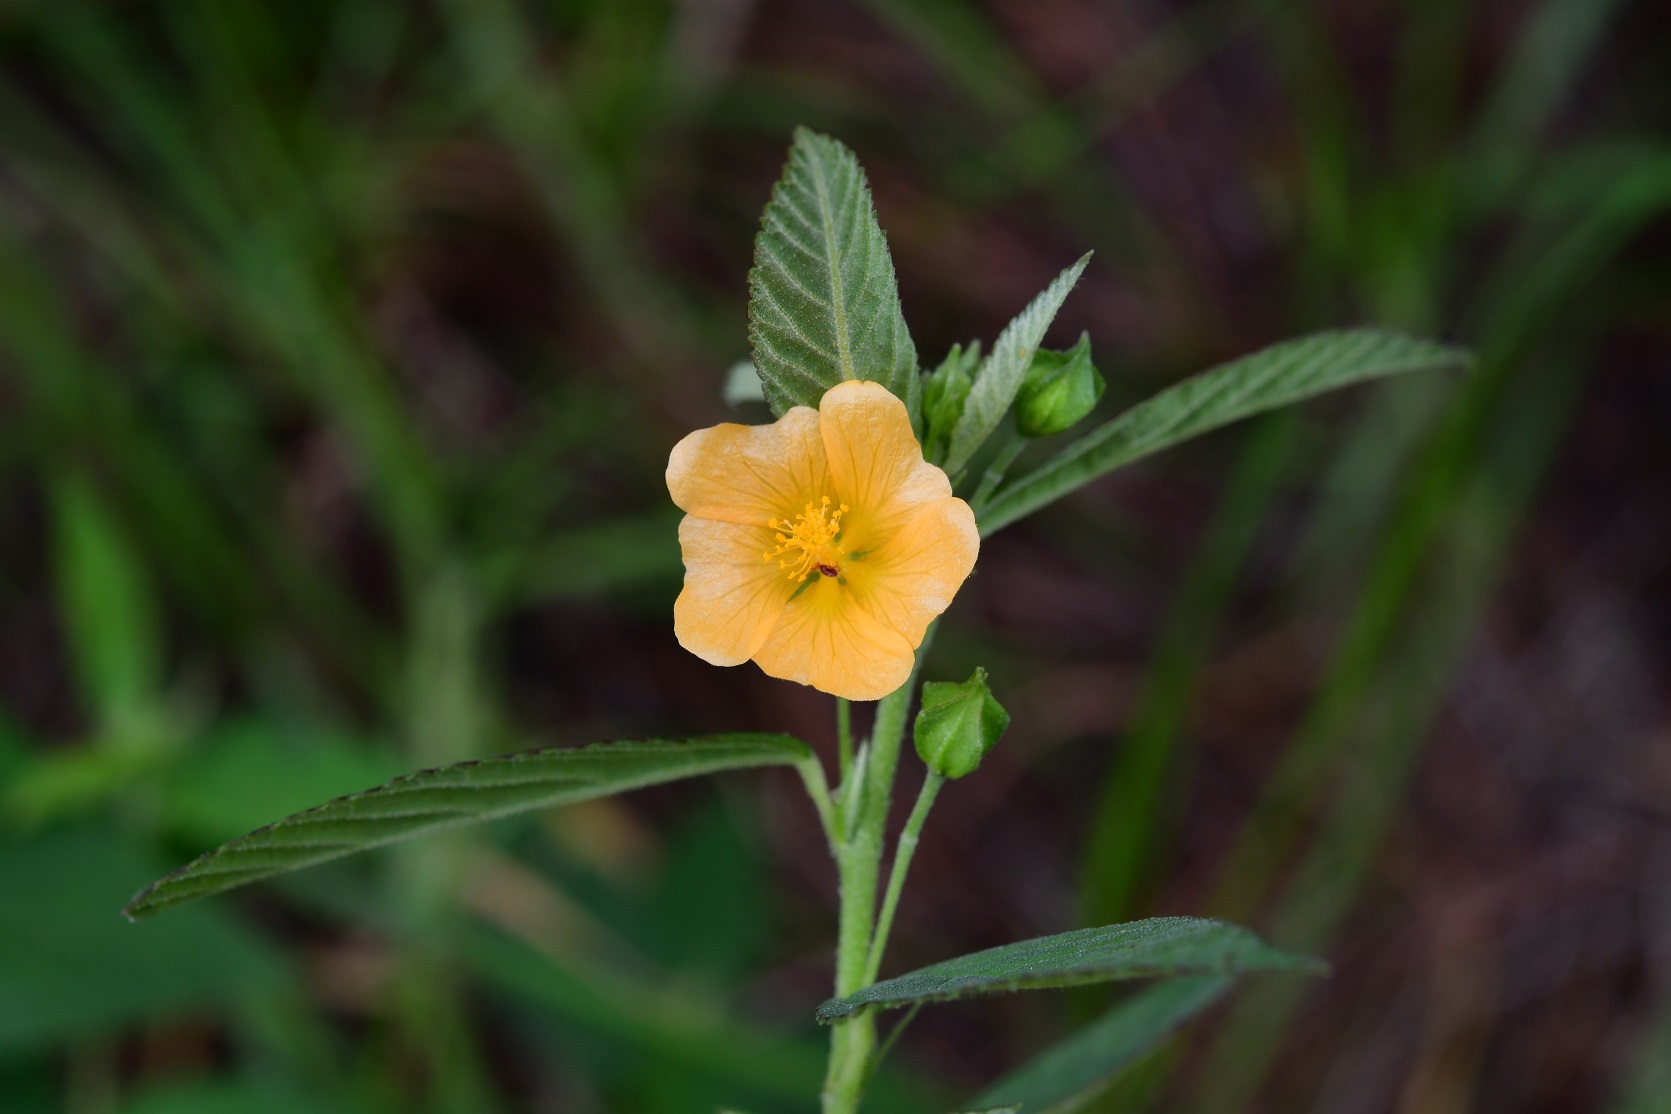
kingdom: Plantae
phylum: Tracheophyta
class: Magnoliopsida
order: Malvales
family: Malvaceae
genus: Sida
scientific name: Sida acuta
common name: Common wireweed
